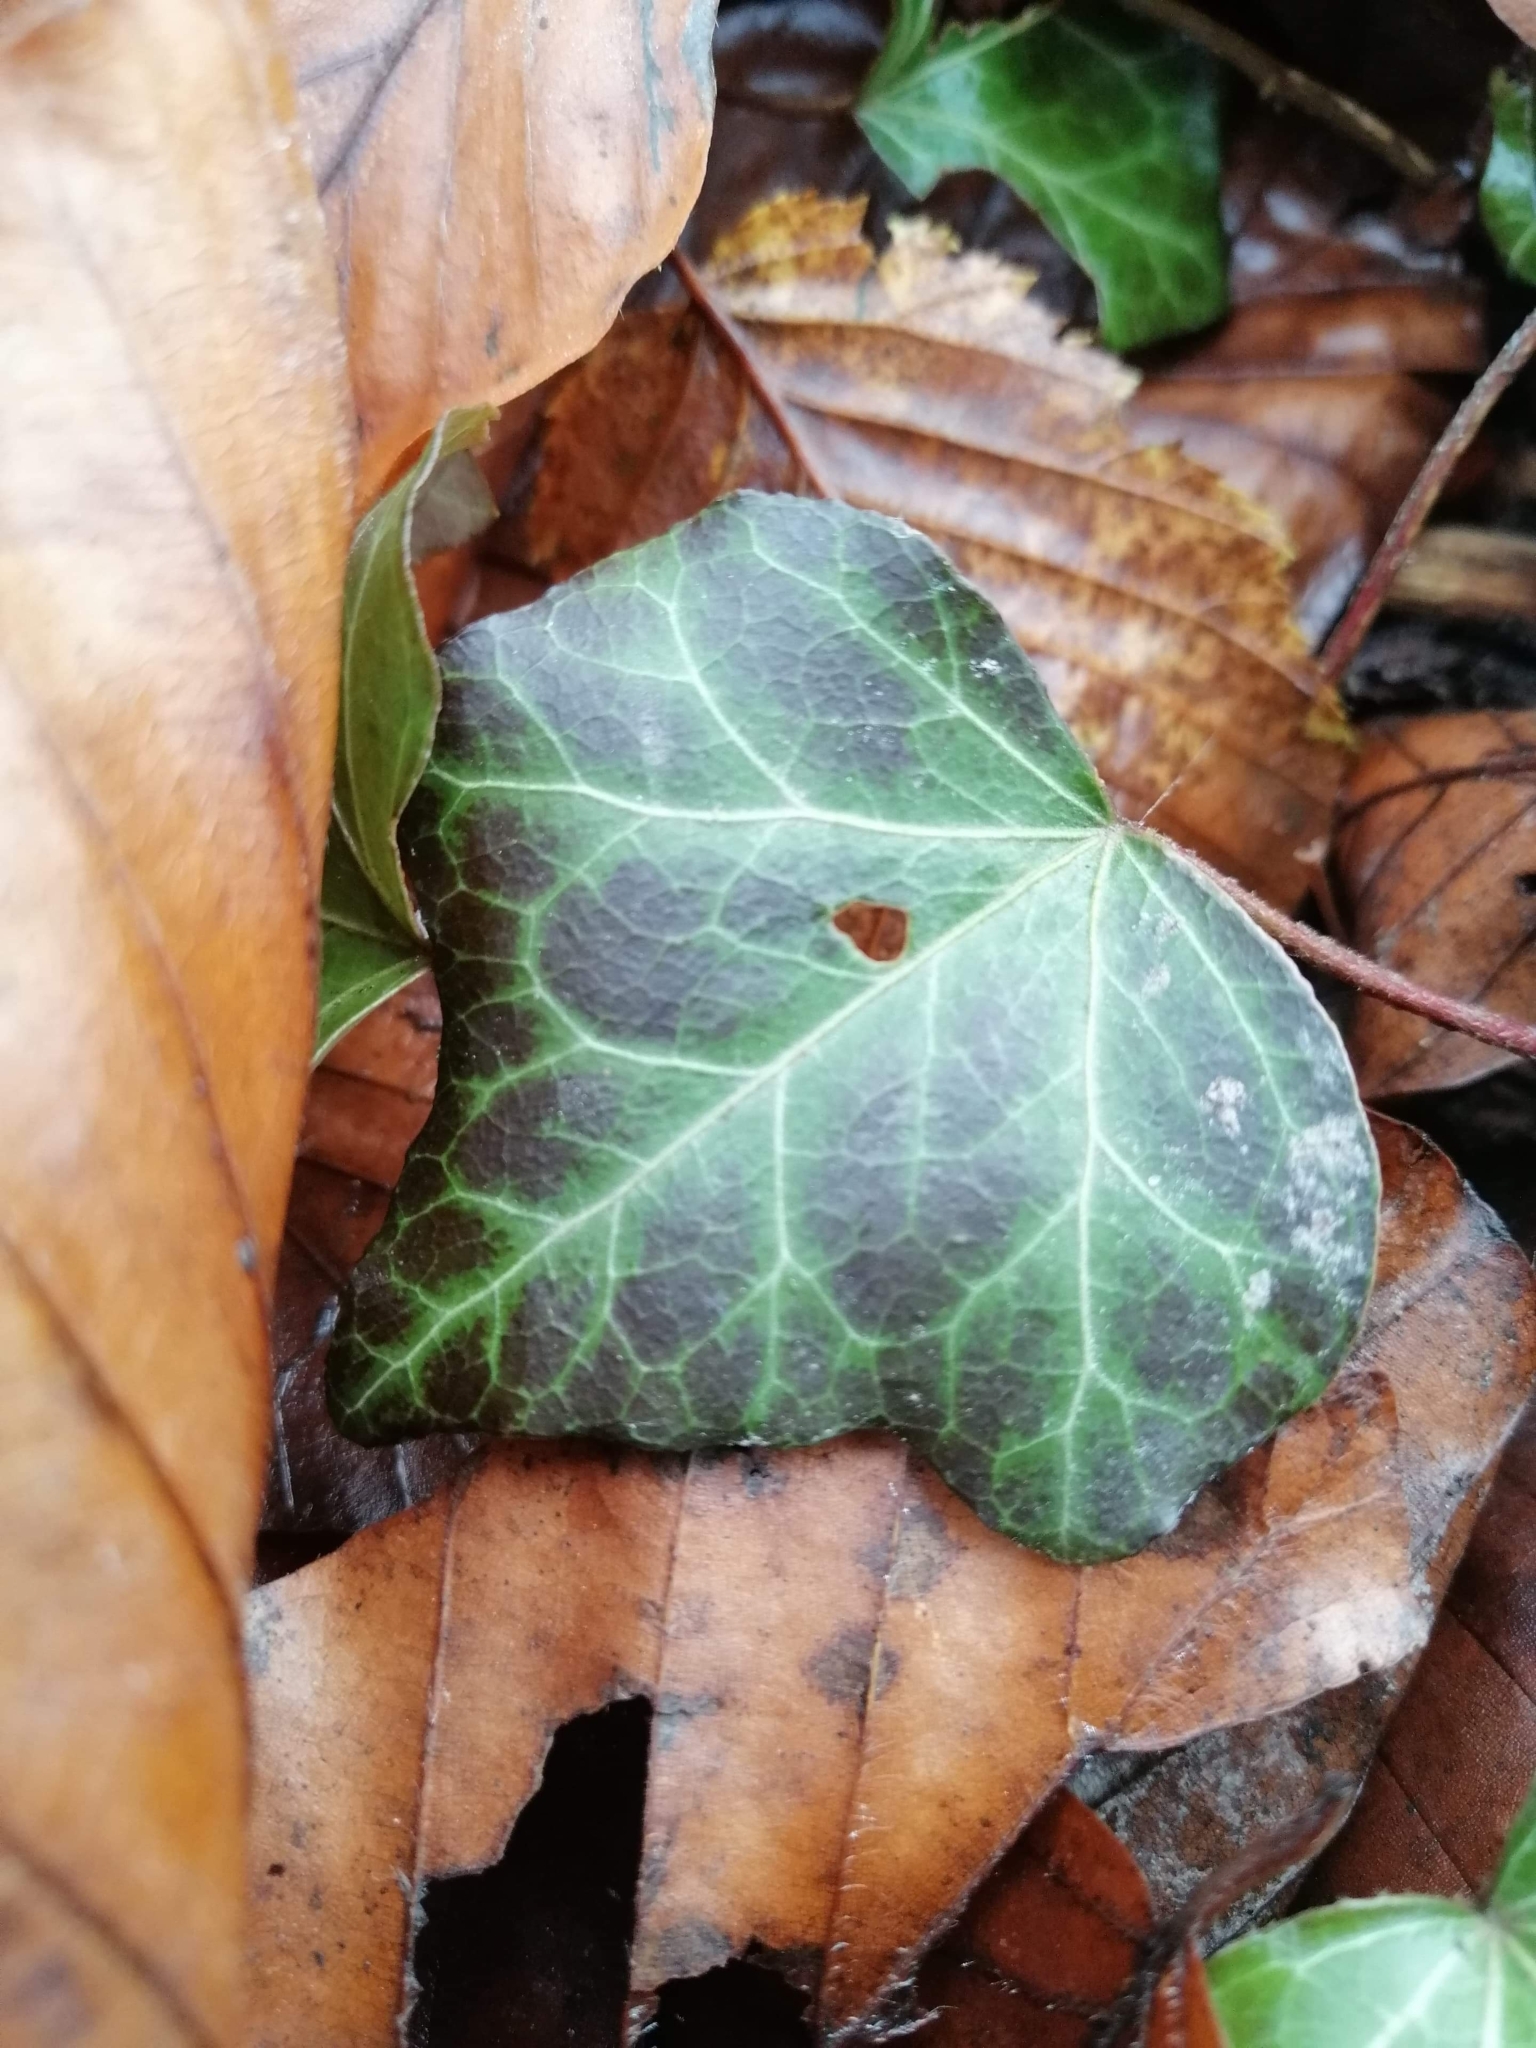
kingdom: Plantae
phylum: Tracheophyta
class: Magnoliopsida
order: Apiales
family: Araliaceae
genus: Hedera
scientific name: Hedera helix
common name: Ivy
